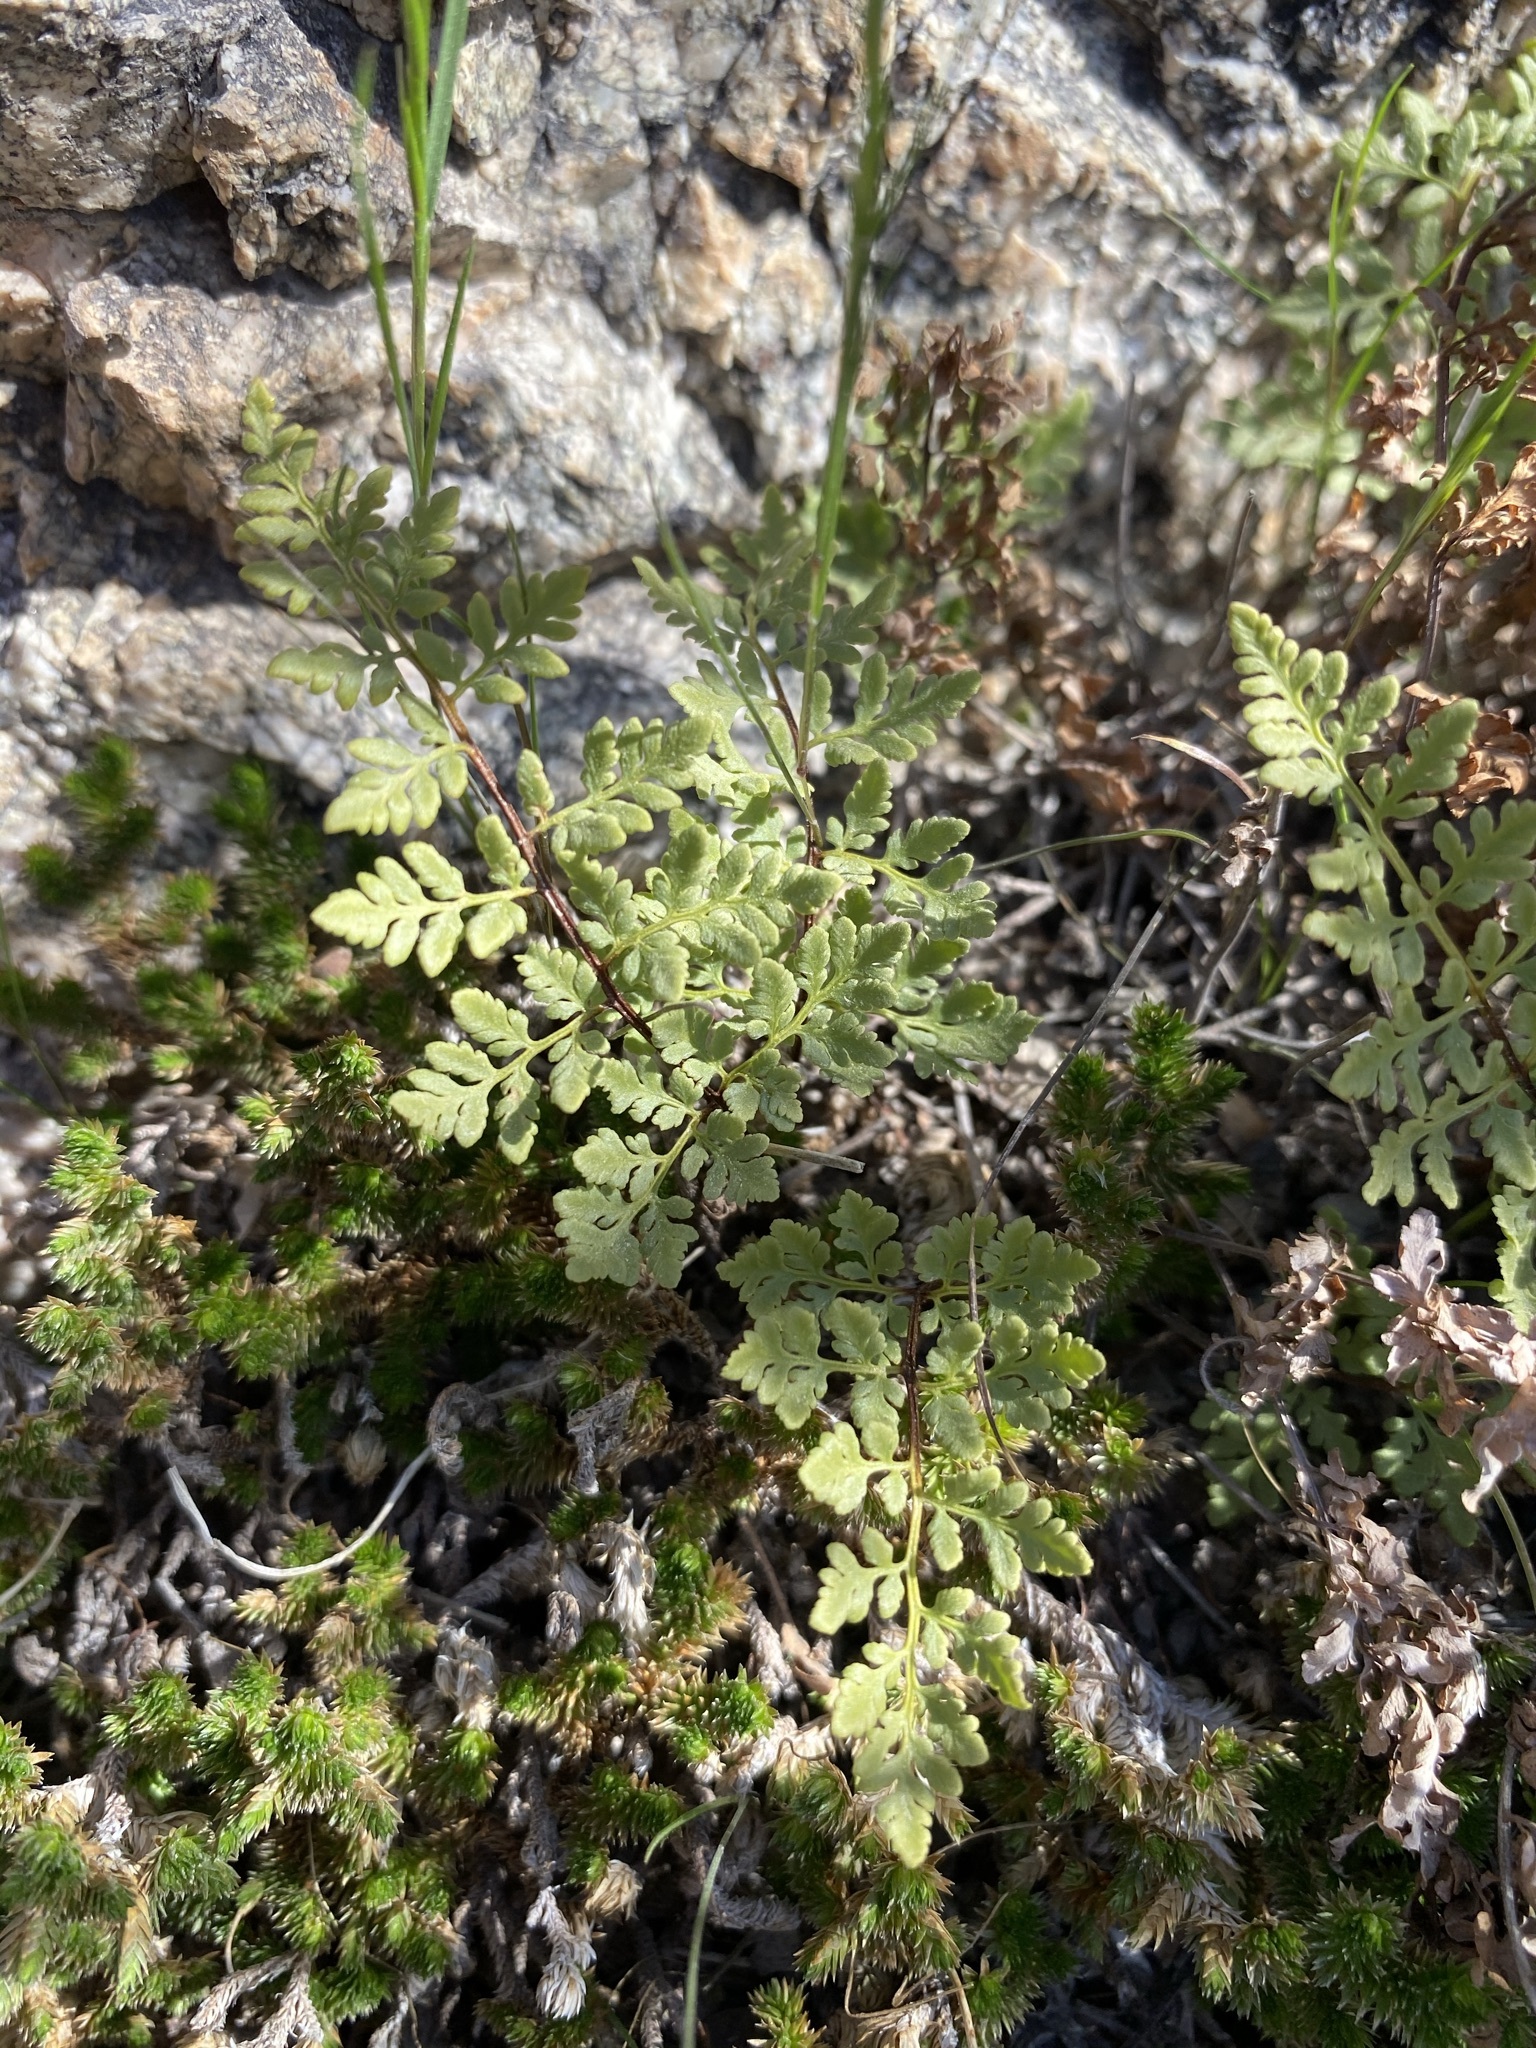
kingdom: Plantae
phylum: Tracheophyta
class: Polypodiopsida
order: Polypodiales
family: Pteridaceae
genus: Myriopteris
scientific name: Myriopteris wrightii
